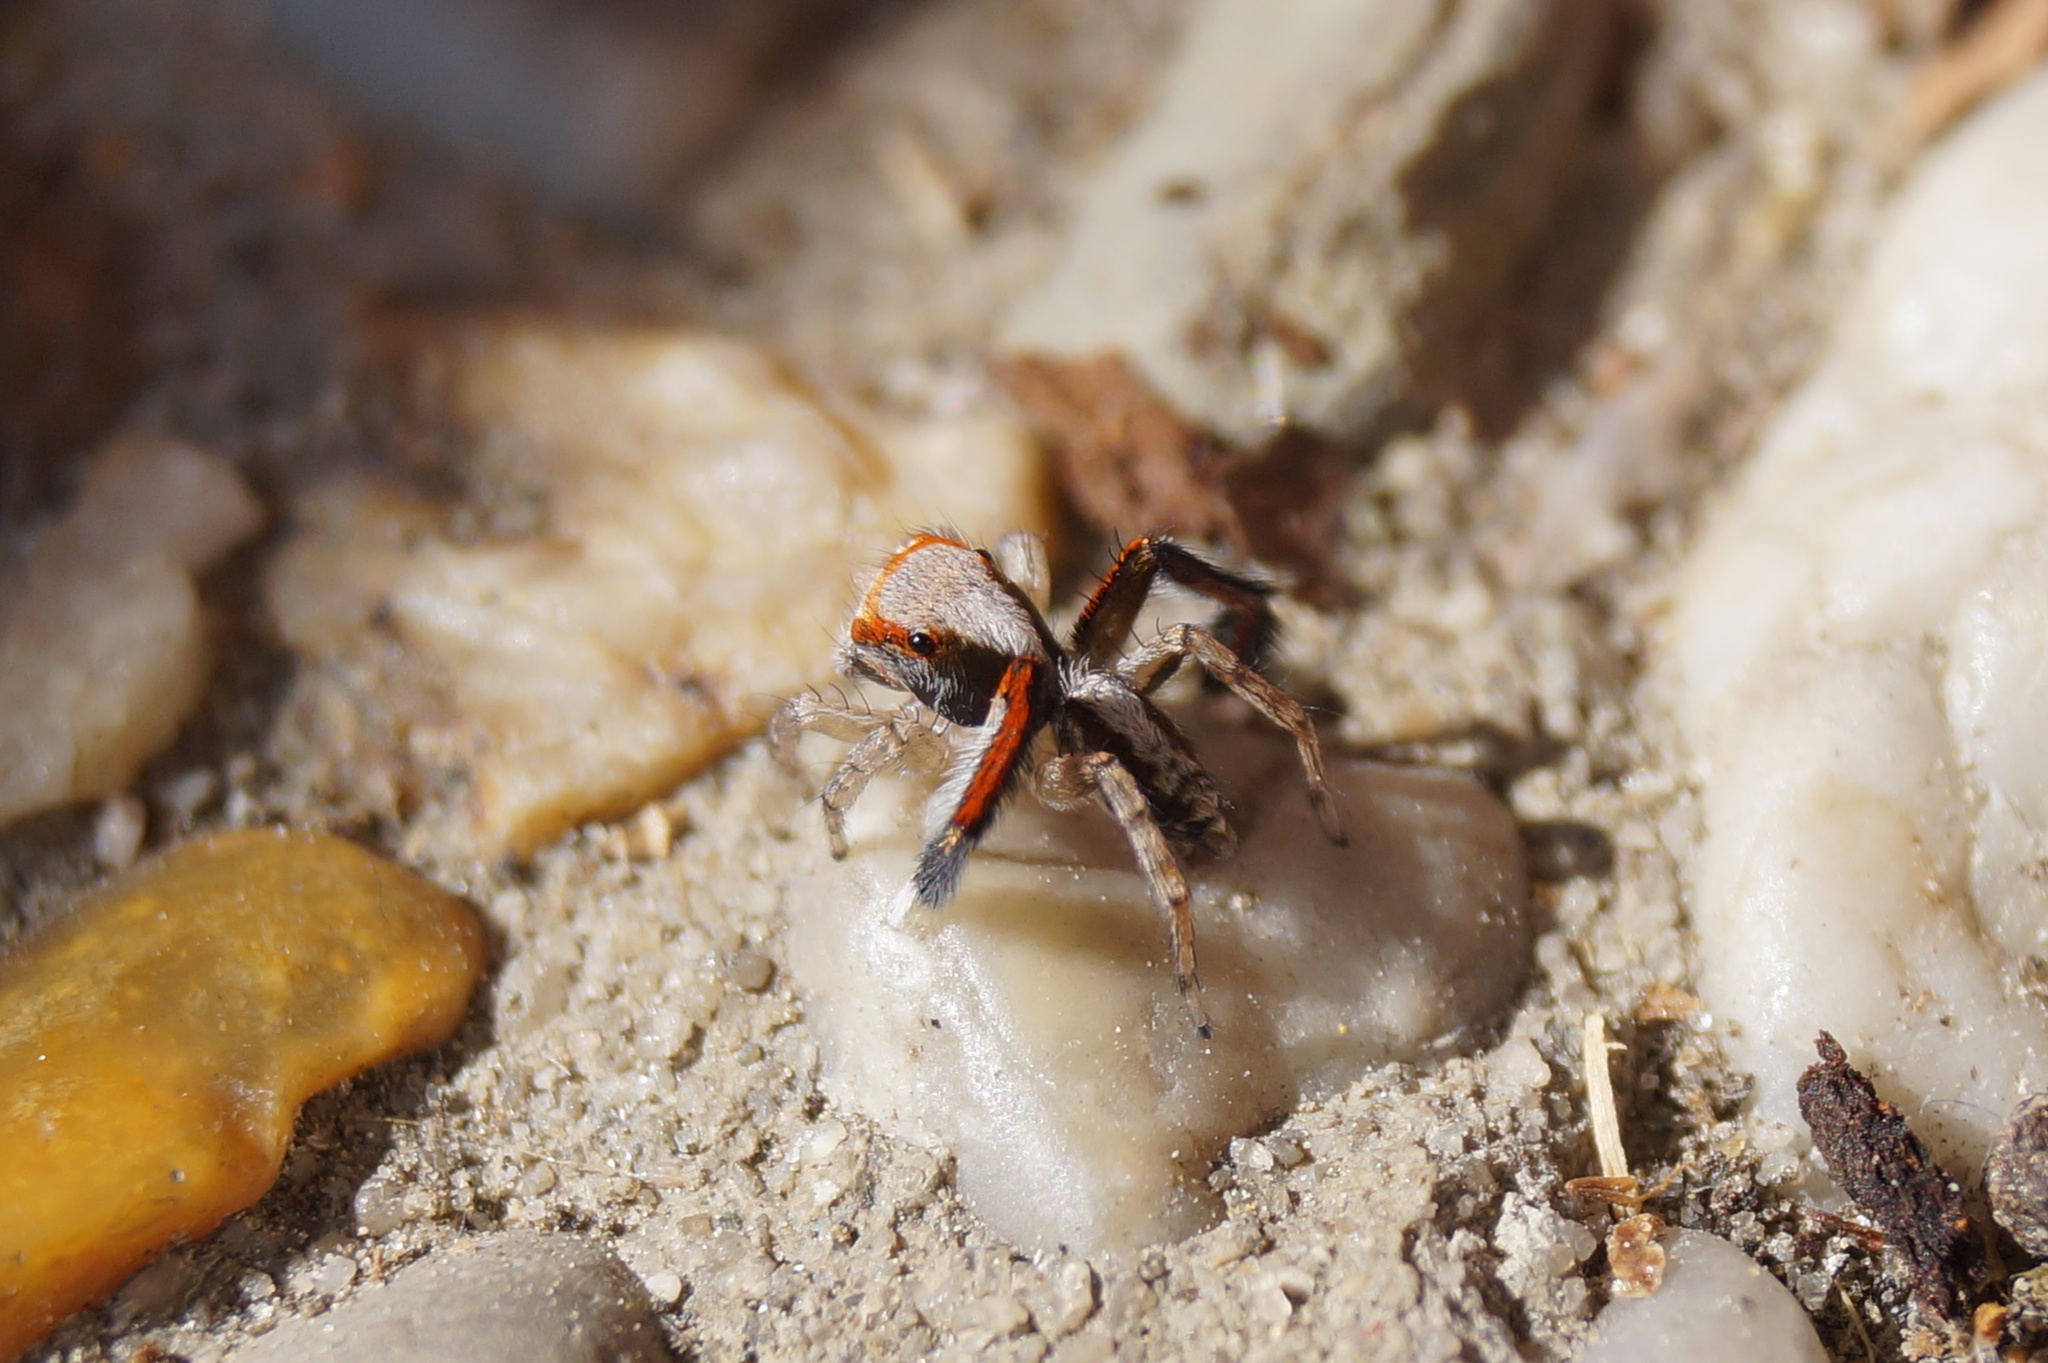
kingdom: Animalia
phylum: Arthropoda
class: Arachnida
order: Araneae
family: Salticidae
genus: Saitis
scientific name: Saitis barbipes
